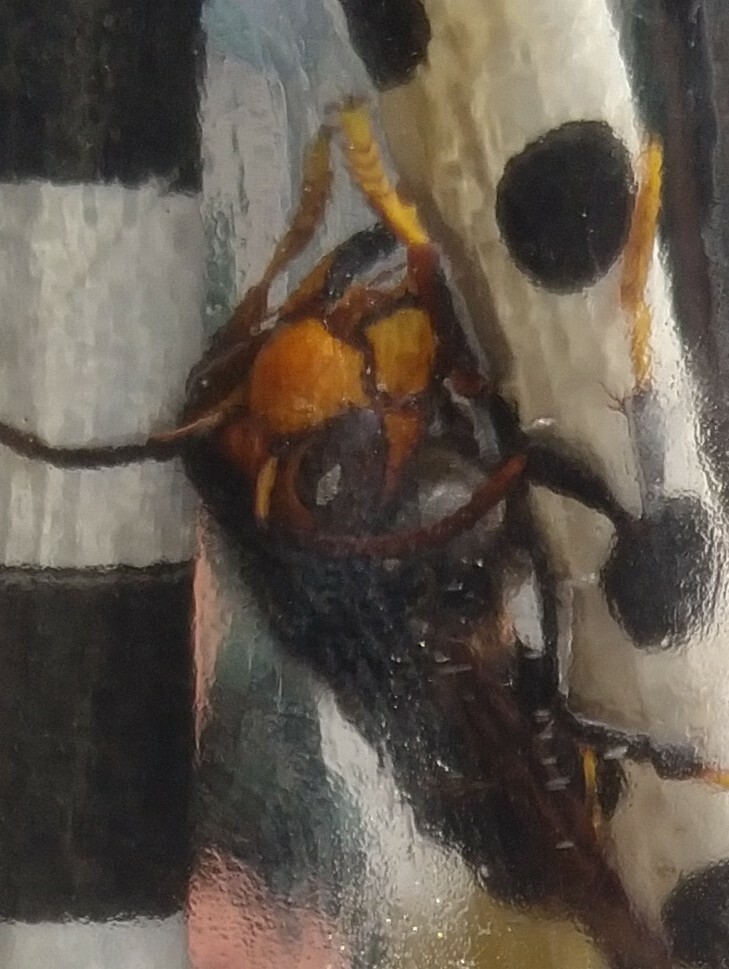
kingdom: Animalia
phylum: Arthropoda
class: Insecta
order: Hymenoptera
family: Vespidae
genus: Vespa
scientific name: Vespa velutina
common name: Asian hornet
